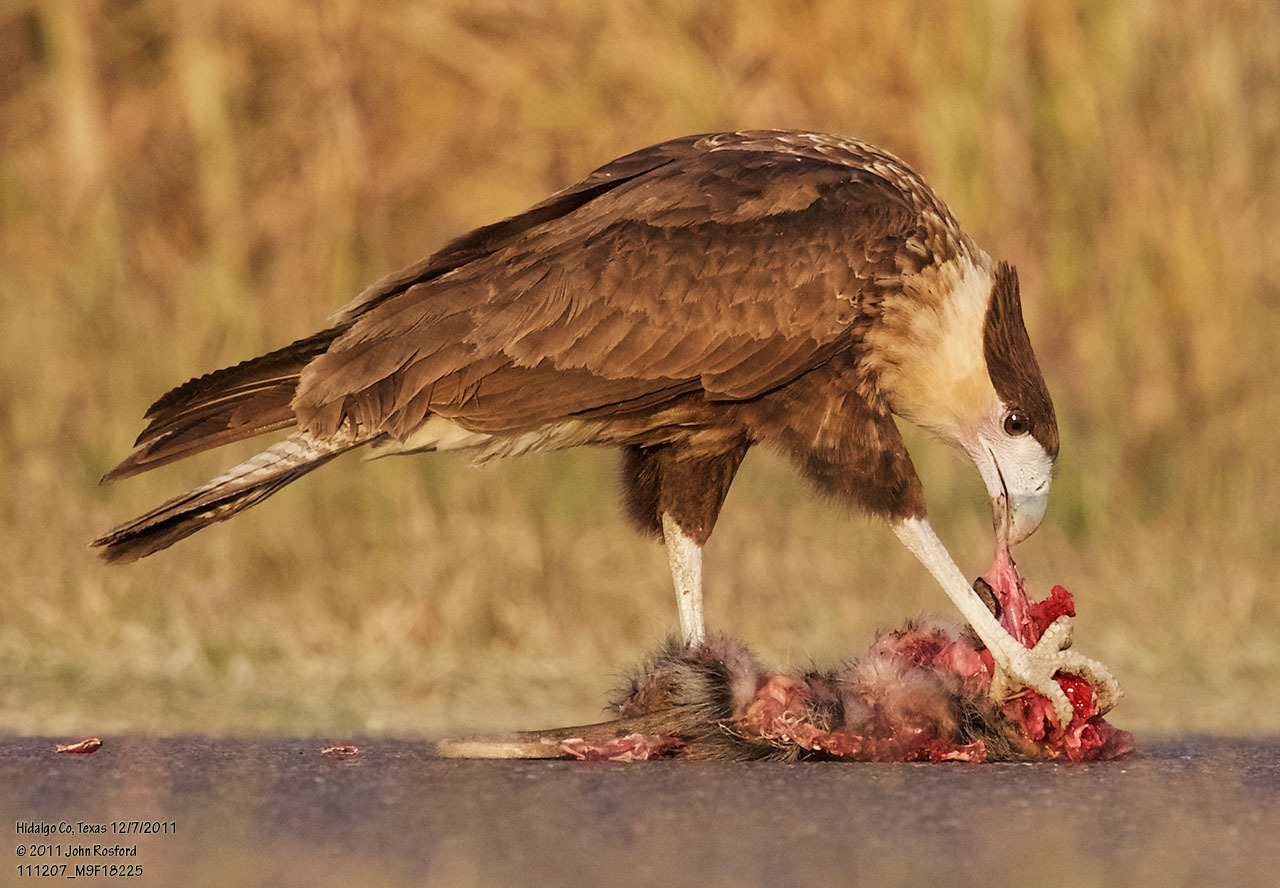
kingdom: Animalia
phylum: Chordata
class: Aves
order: Falconiformes
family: Falconidae
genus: Caracara
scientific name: Caracara plancus
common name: Southern caracara
